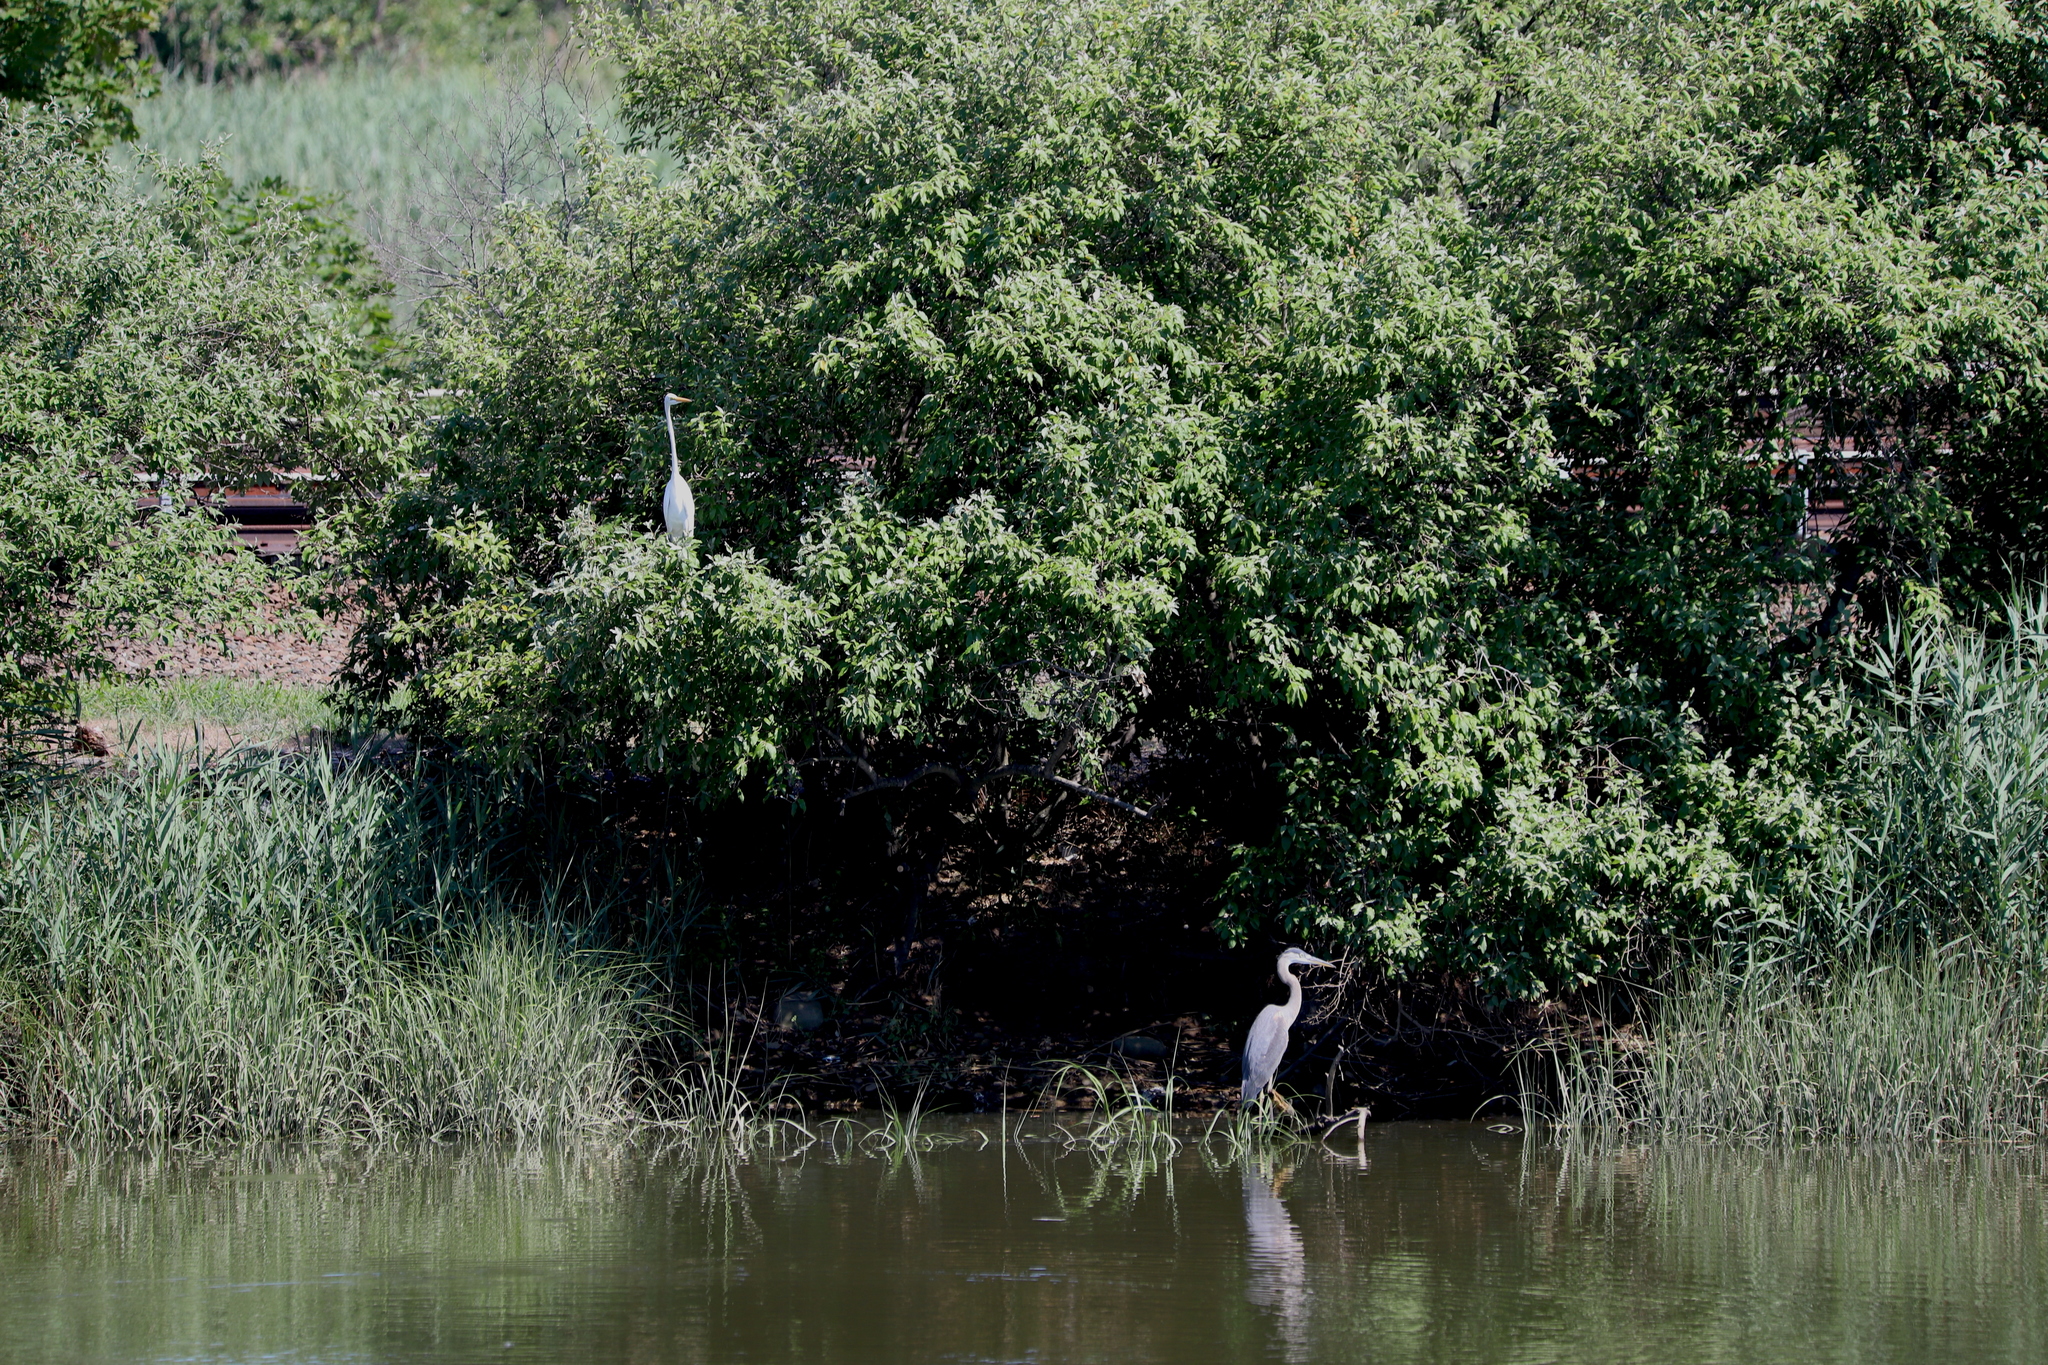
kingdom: Animalia
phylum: Chordata
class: Aves
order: Pelecaniformes
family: Ardeidae
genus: Ardea
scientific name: Ardea herodias
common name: Great blue heron
